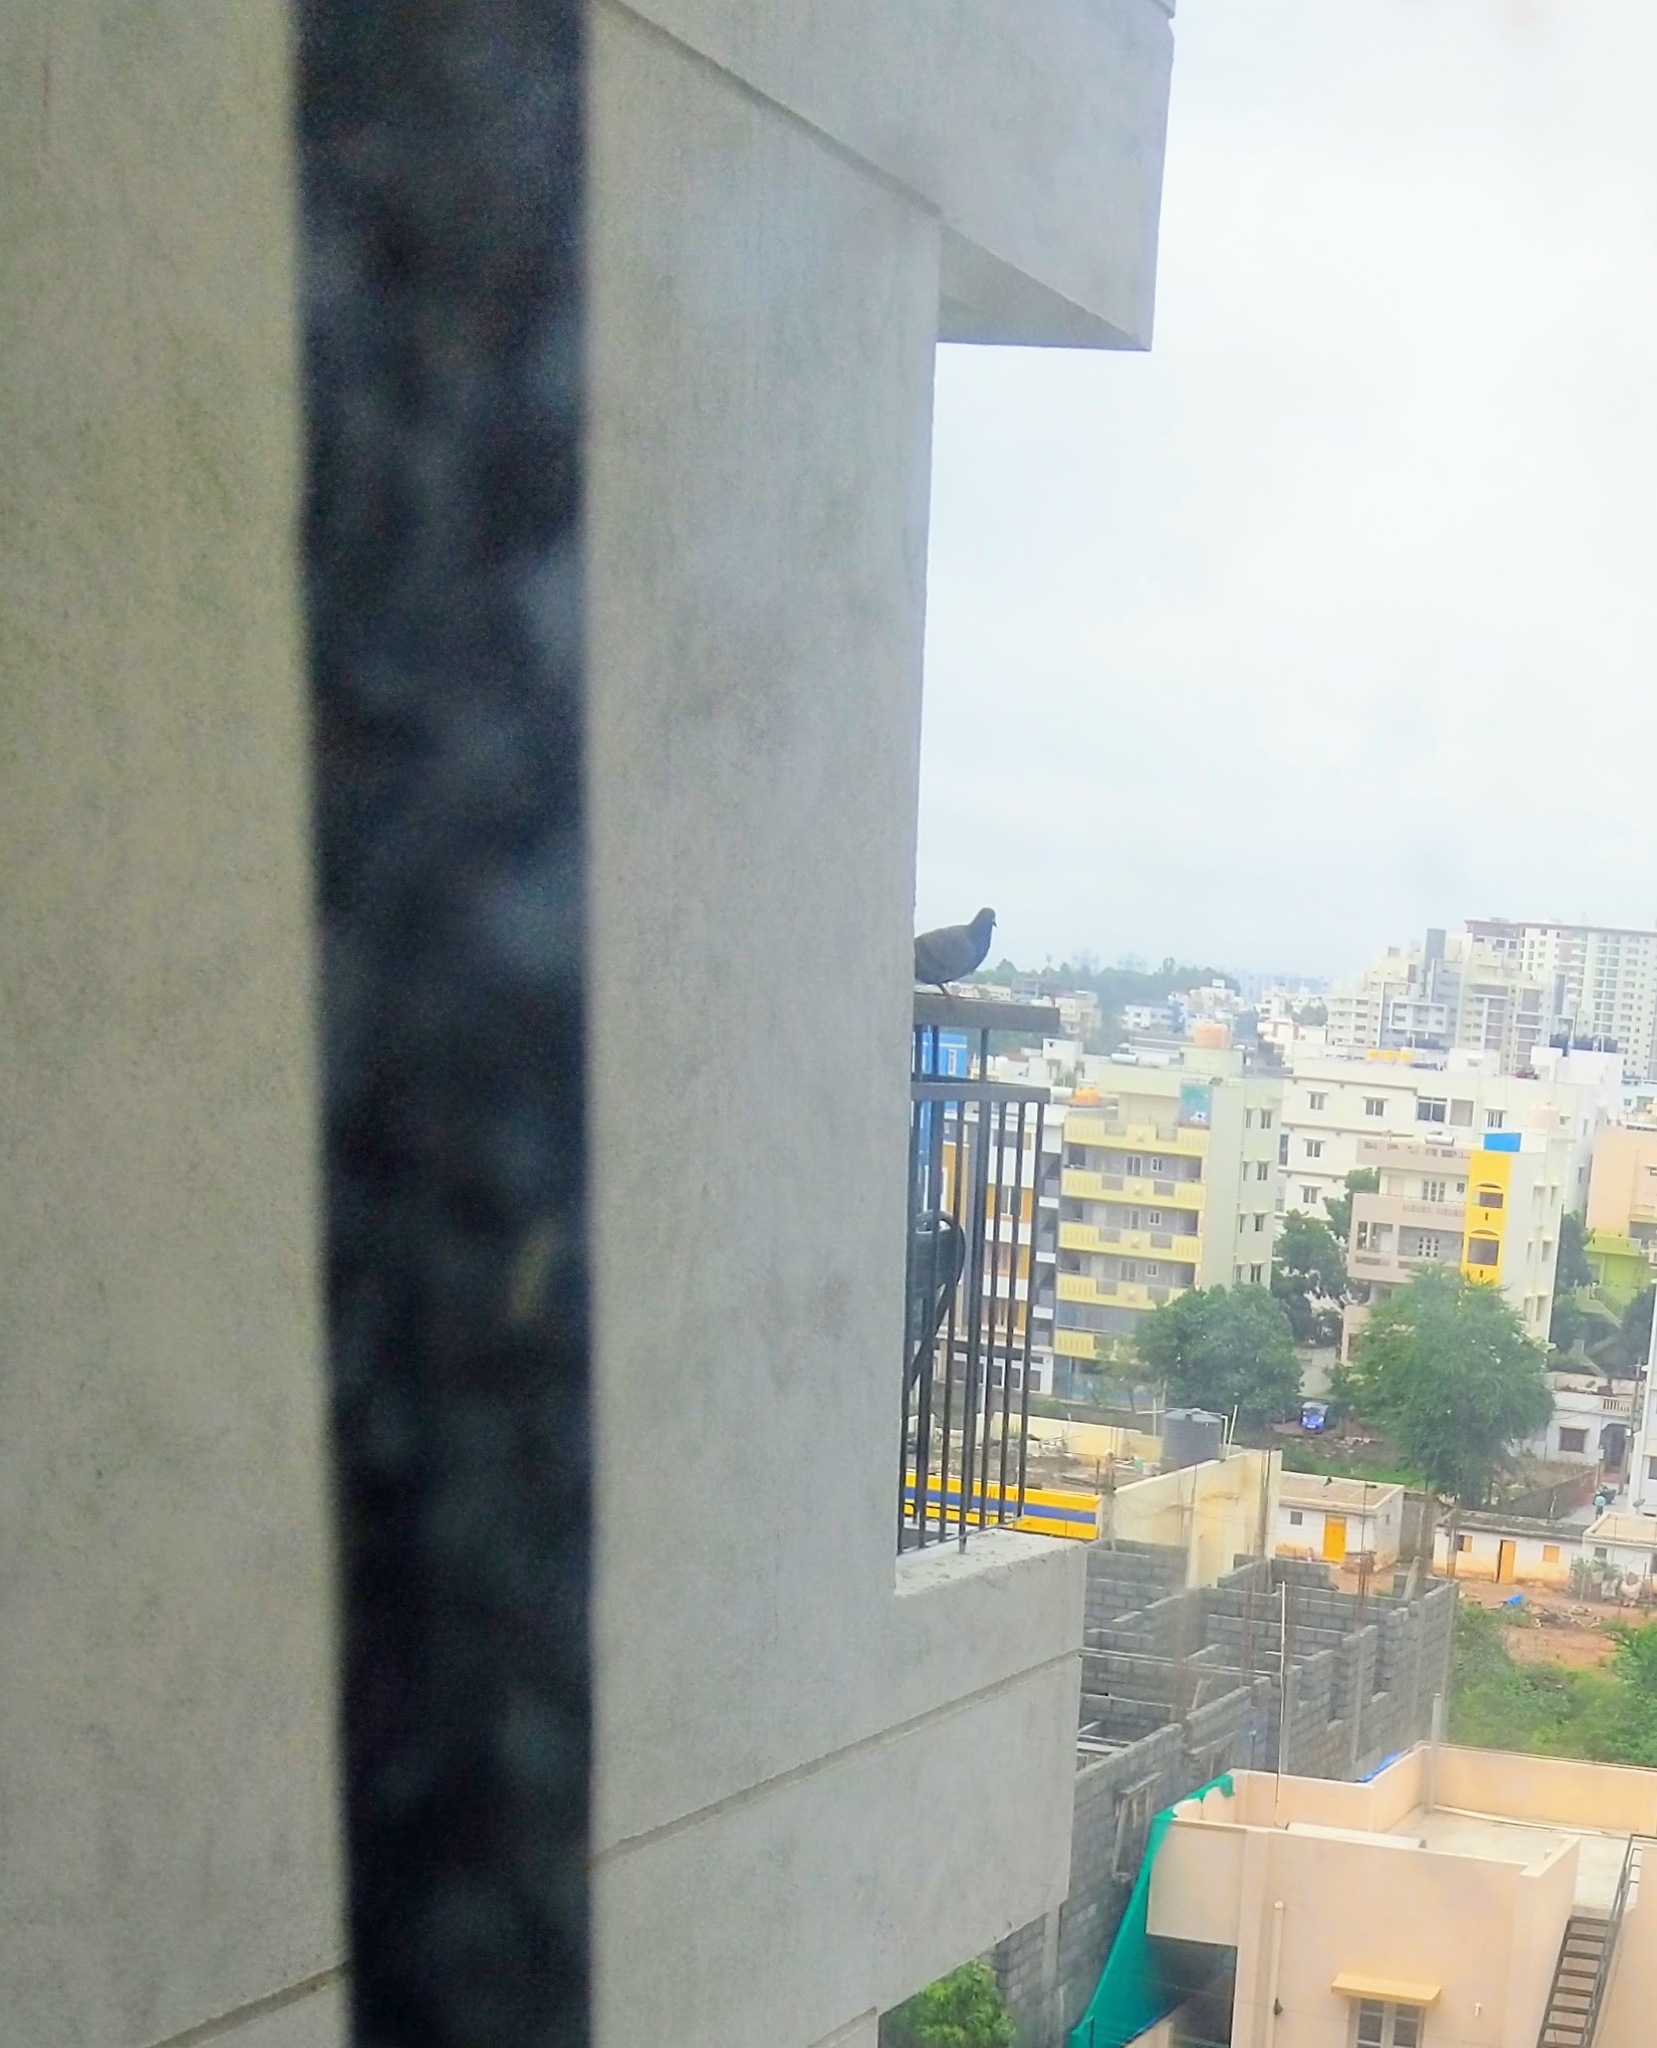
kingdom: Animalia
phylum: Chordata
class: Aves
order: Columbiformes
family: Columbidae
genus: Columba
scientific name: Columba livia
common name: Rock pigeon
